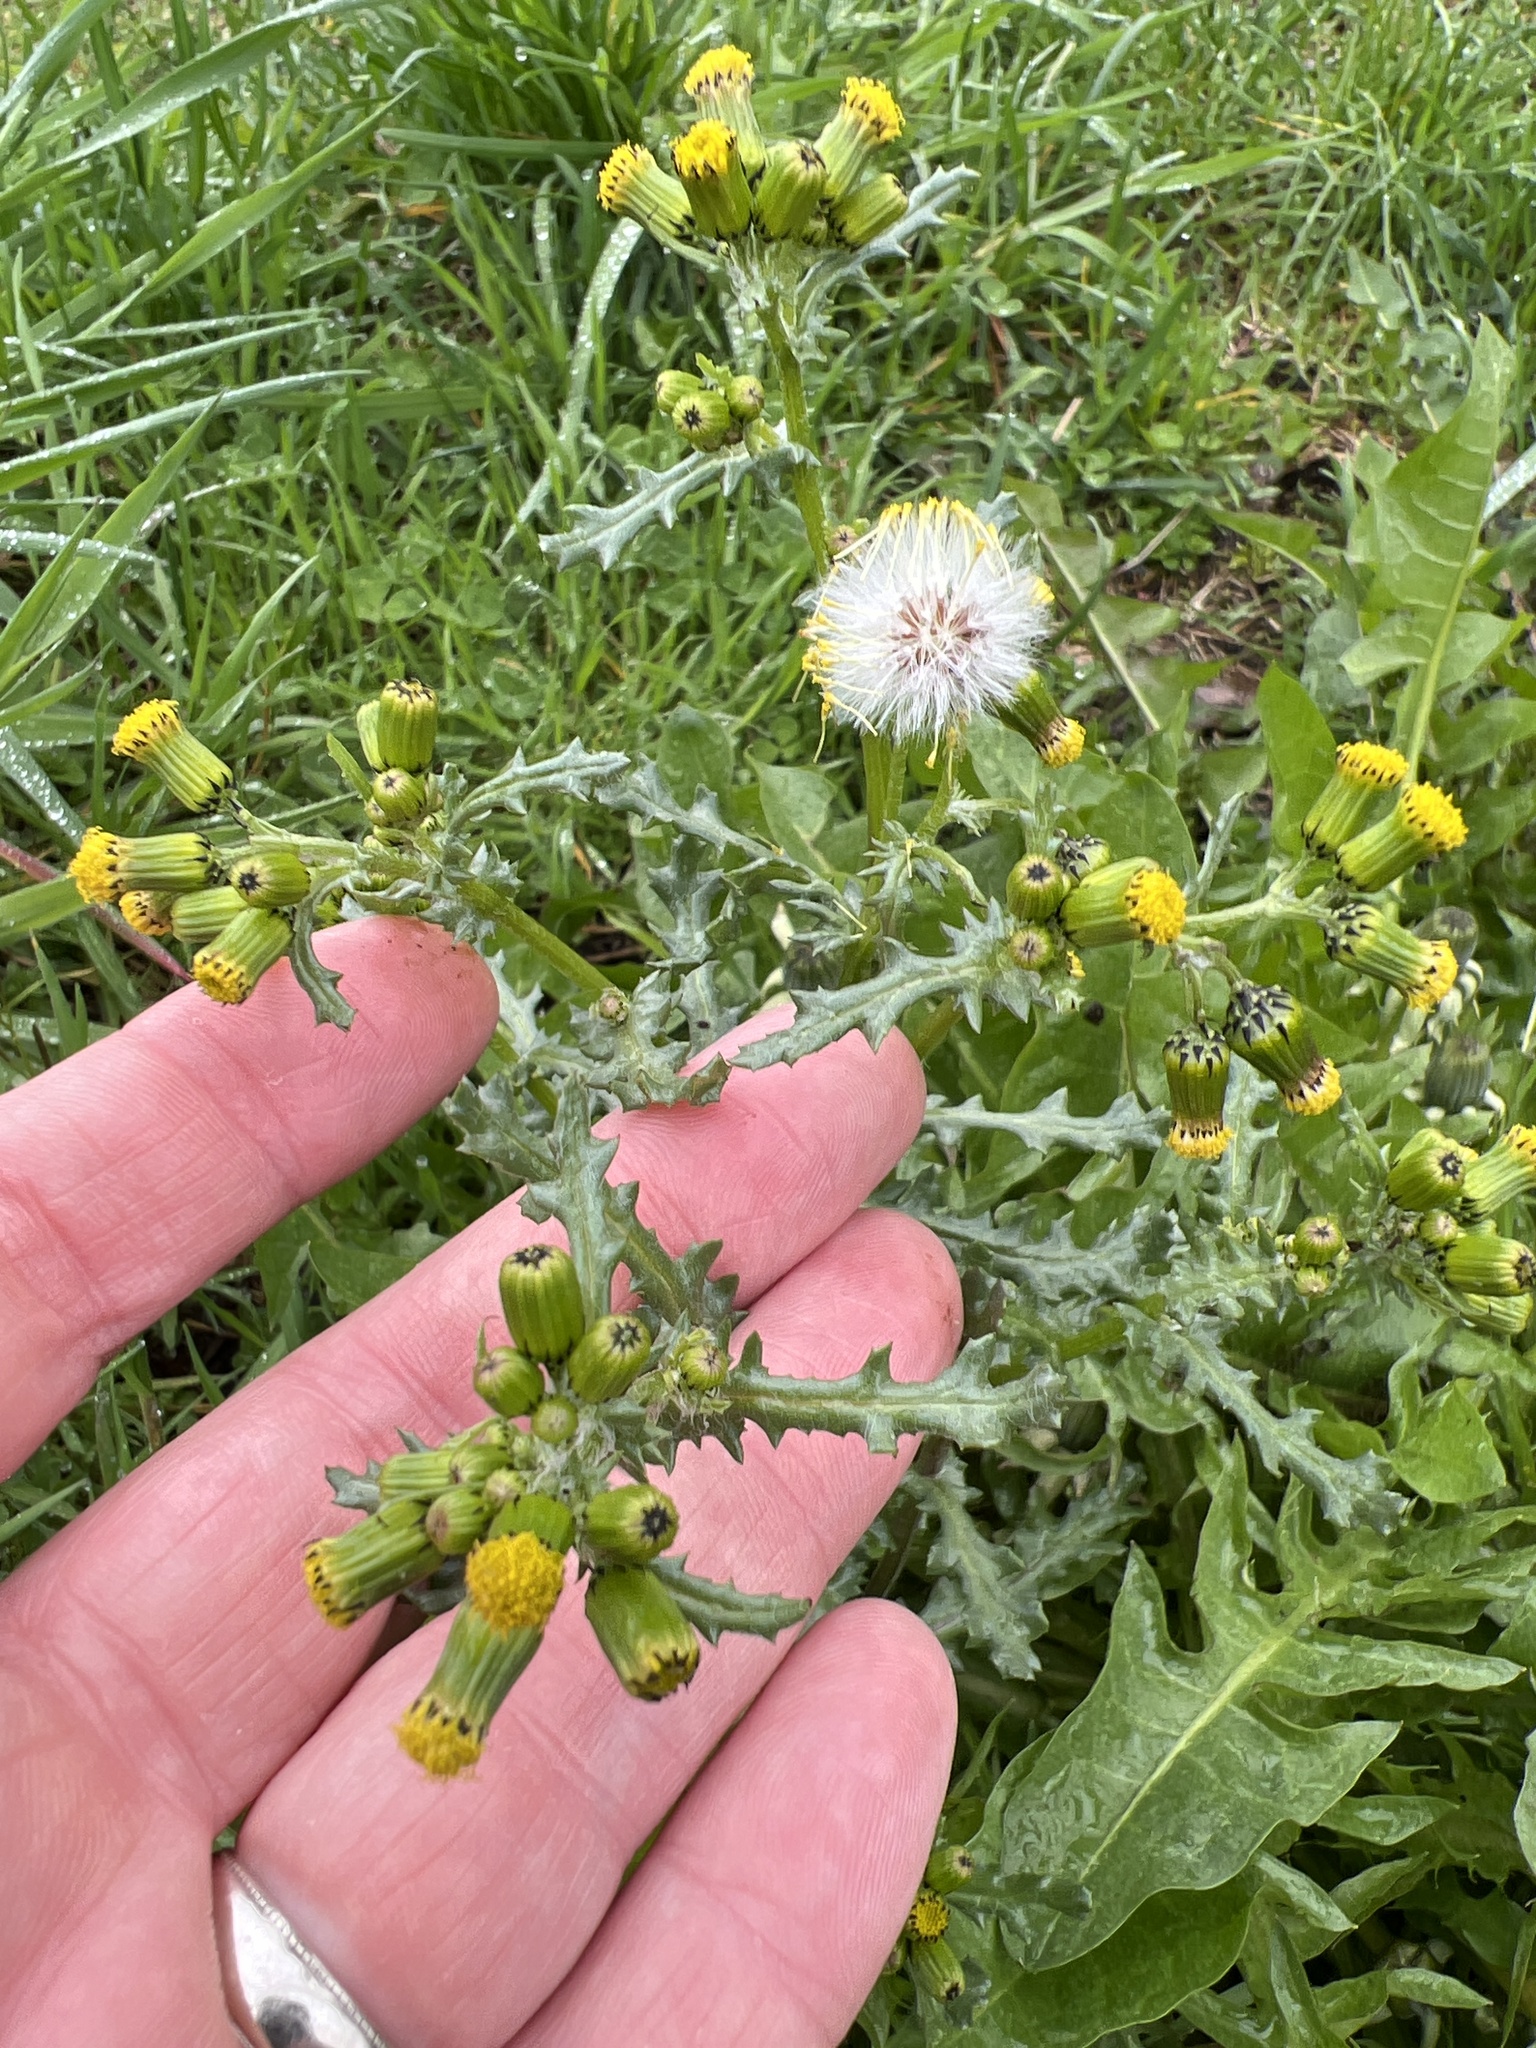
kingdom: Plantae
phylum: Tracheophyta
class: Magnoliopsida
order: Asterales
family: Asteraceae
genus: Senecio
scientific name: Senecio vulgaris
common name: Old-man-in-the-spring
